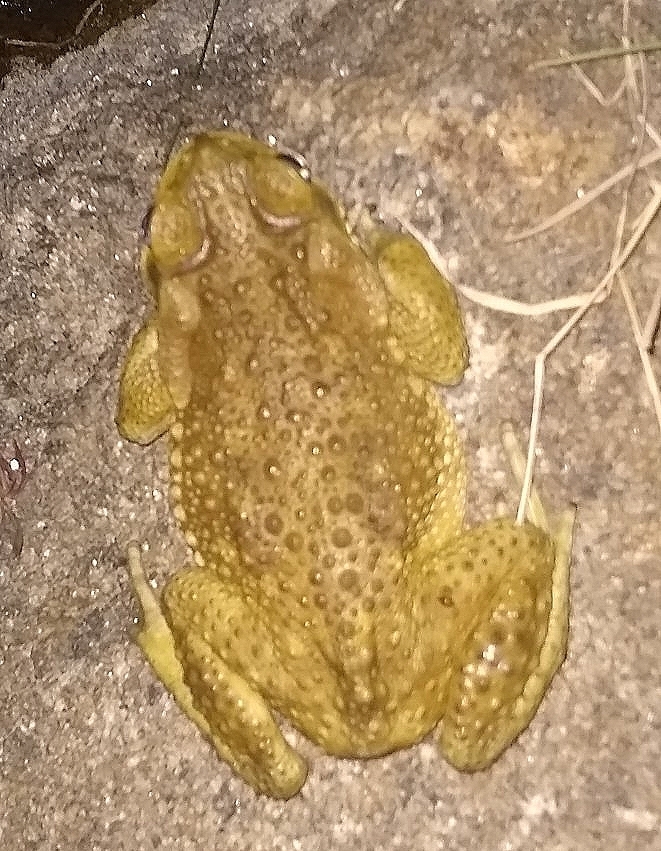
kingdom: Animalia
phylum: Chordata
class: Amphibia
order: Anura
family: Bufonidae
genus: Rhinella
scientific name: Rhinella arenarum
